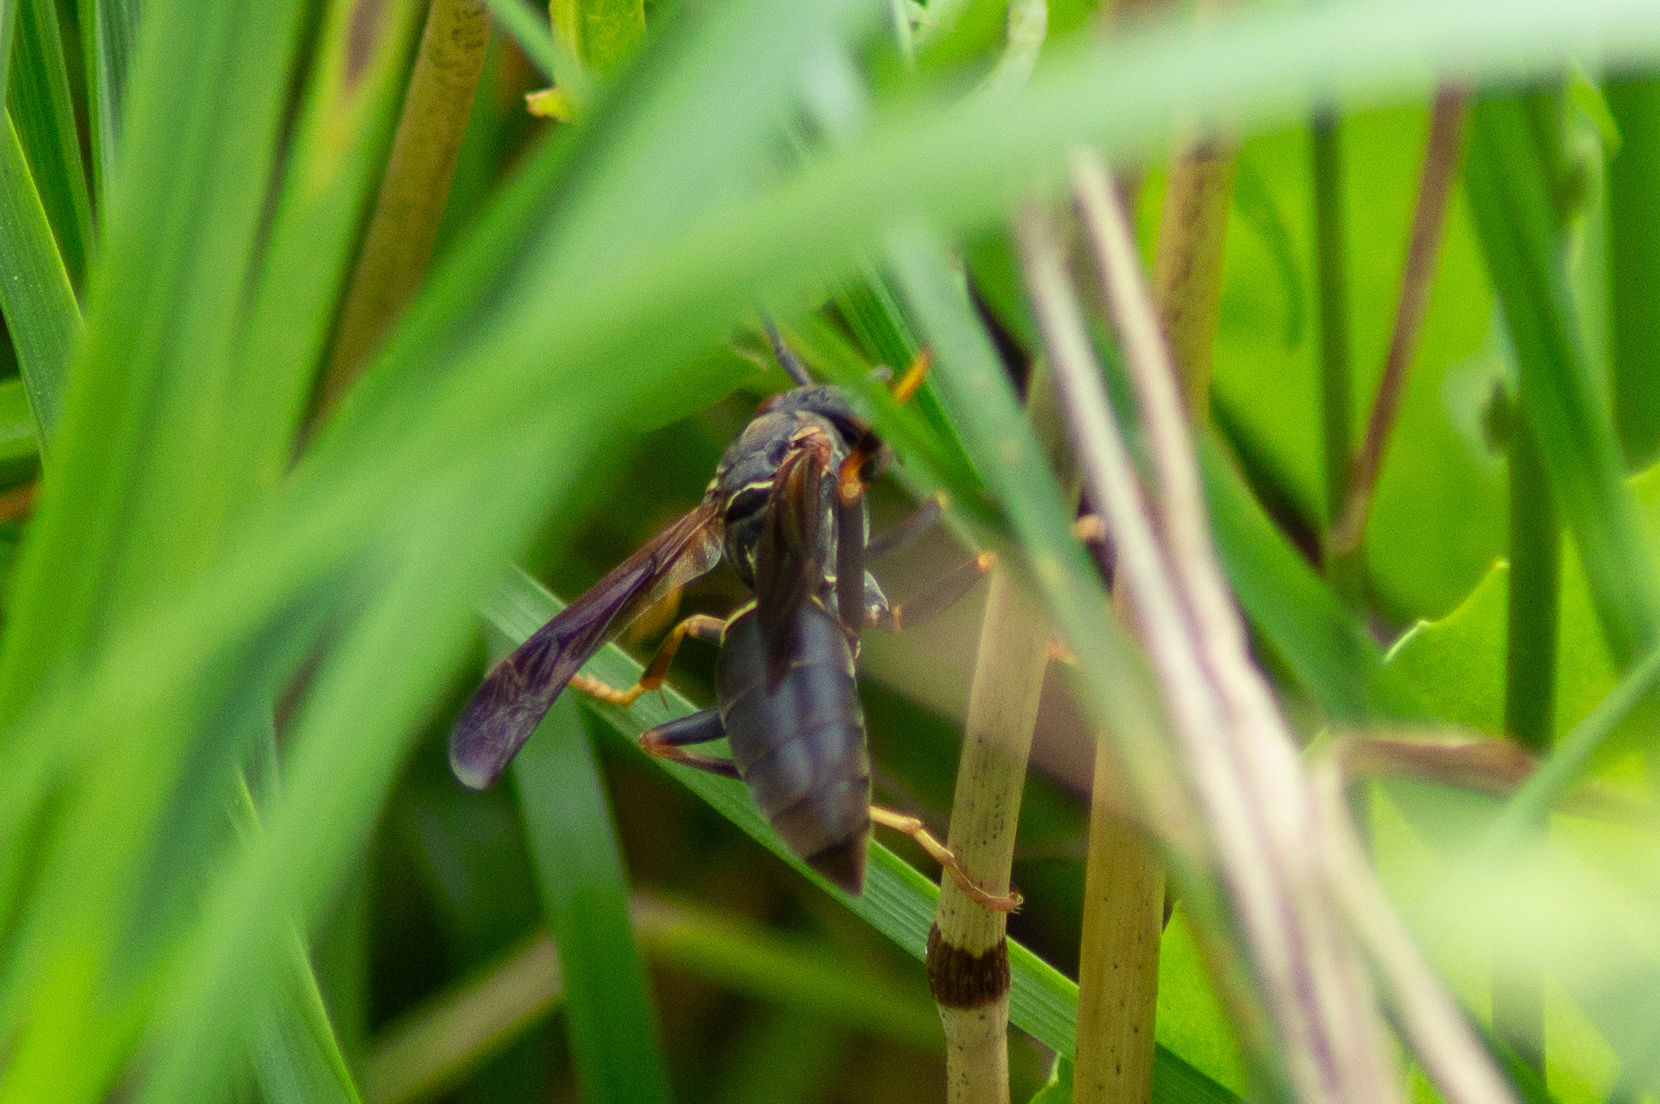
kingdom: Animalia
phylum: Arthropoda
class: Insecta
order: Hymenoptera
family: Eumenidae
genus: Polistes
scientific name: Polistes fuscatus
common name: Dark paper wasp
